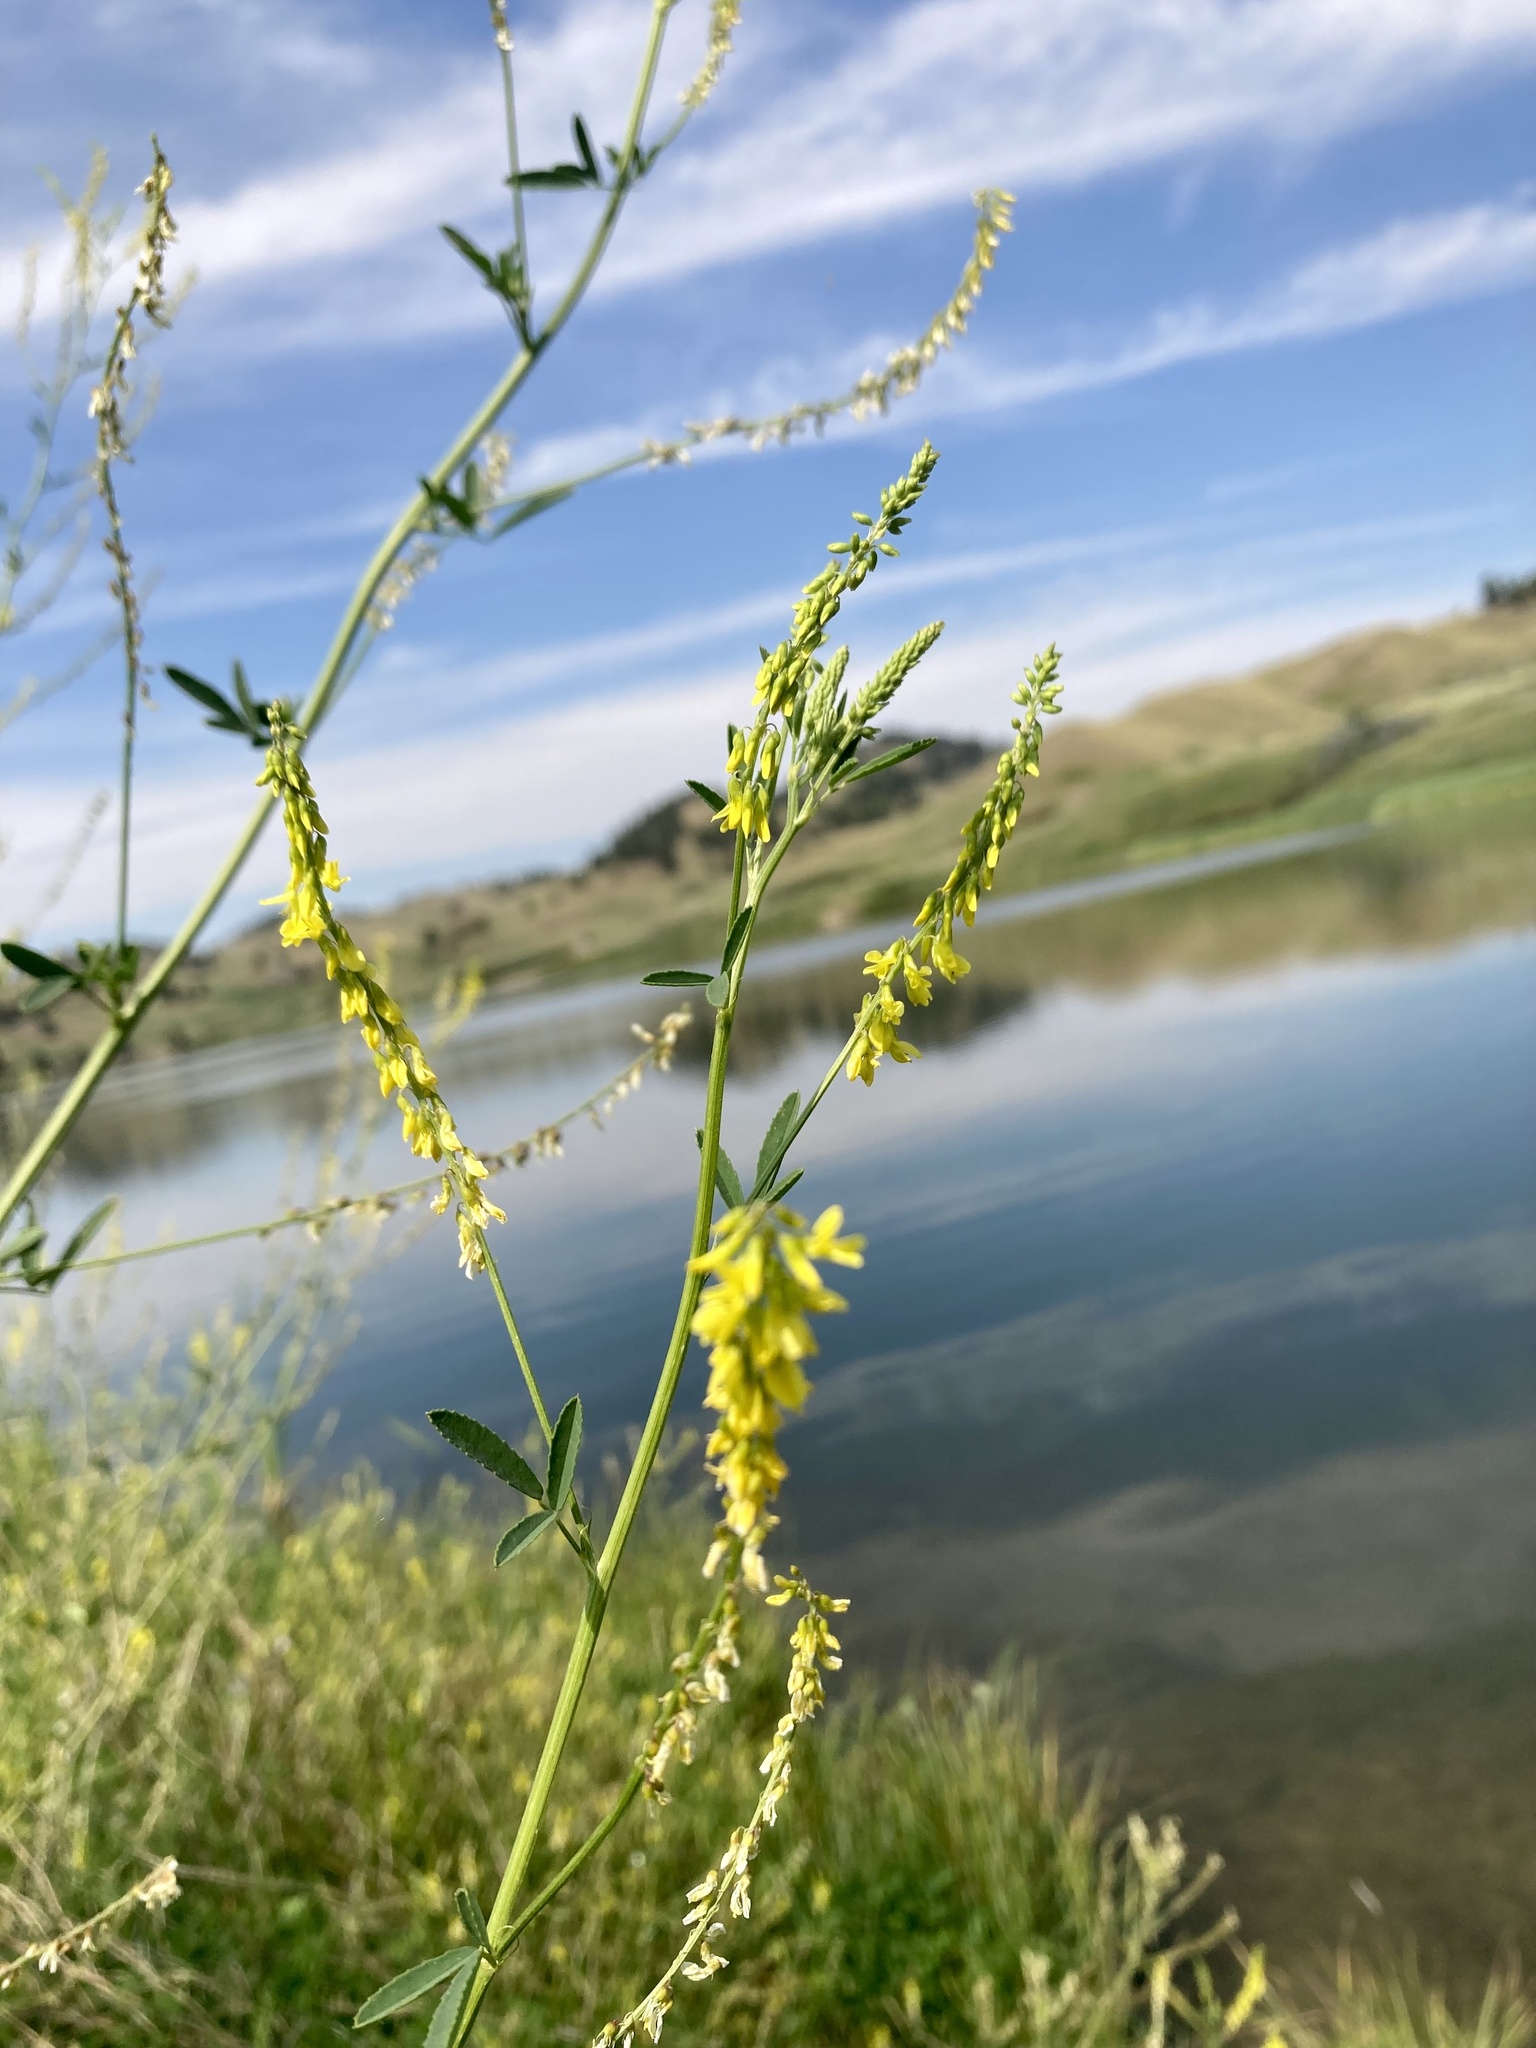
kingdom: Plantae
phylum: Tracheophyta
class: Magnoliopsida
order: Fabales
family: Fabaceae
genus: Melilotus
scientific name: Melilotus officinalis
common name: Sweetclover
